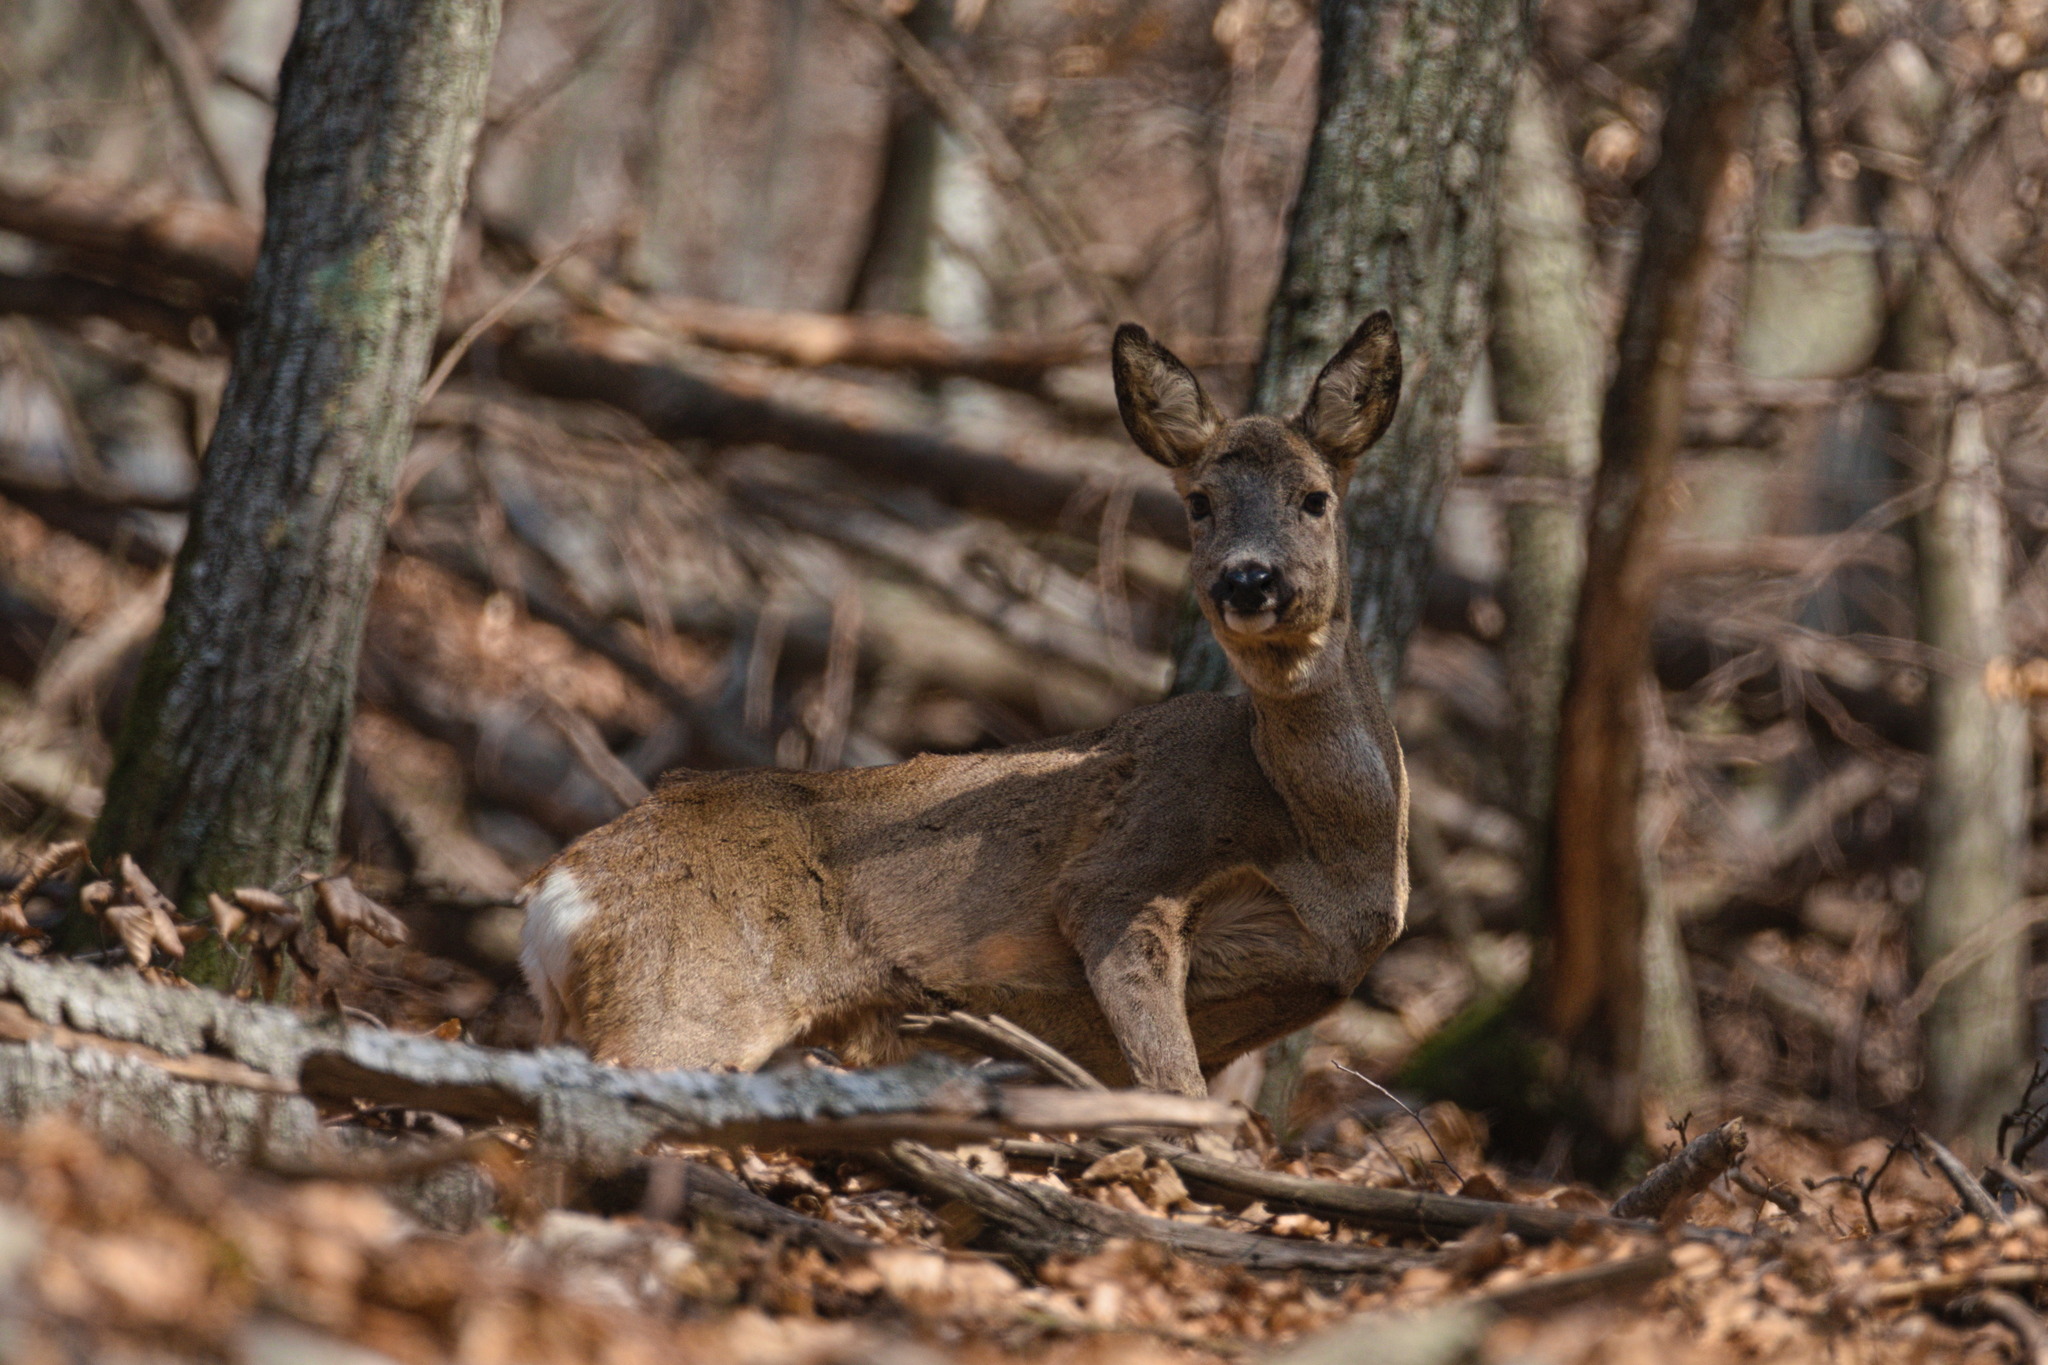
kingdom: Animalia
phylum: Chordata
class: Mammalia
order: Artiodactyla
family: Cervidae
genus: Capreolus
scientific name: Capreolus capreolus
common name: Western roe deer
